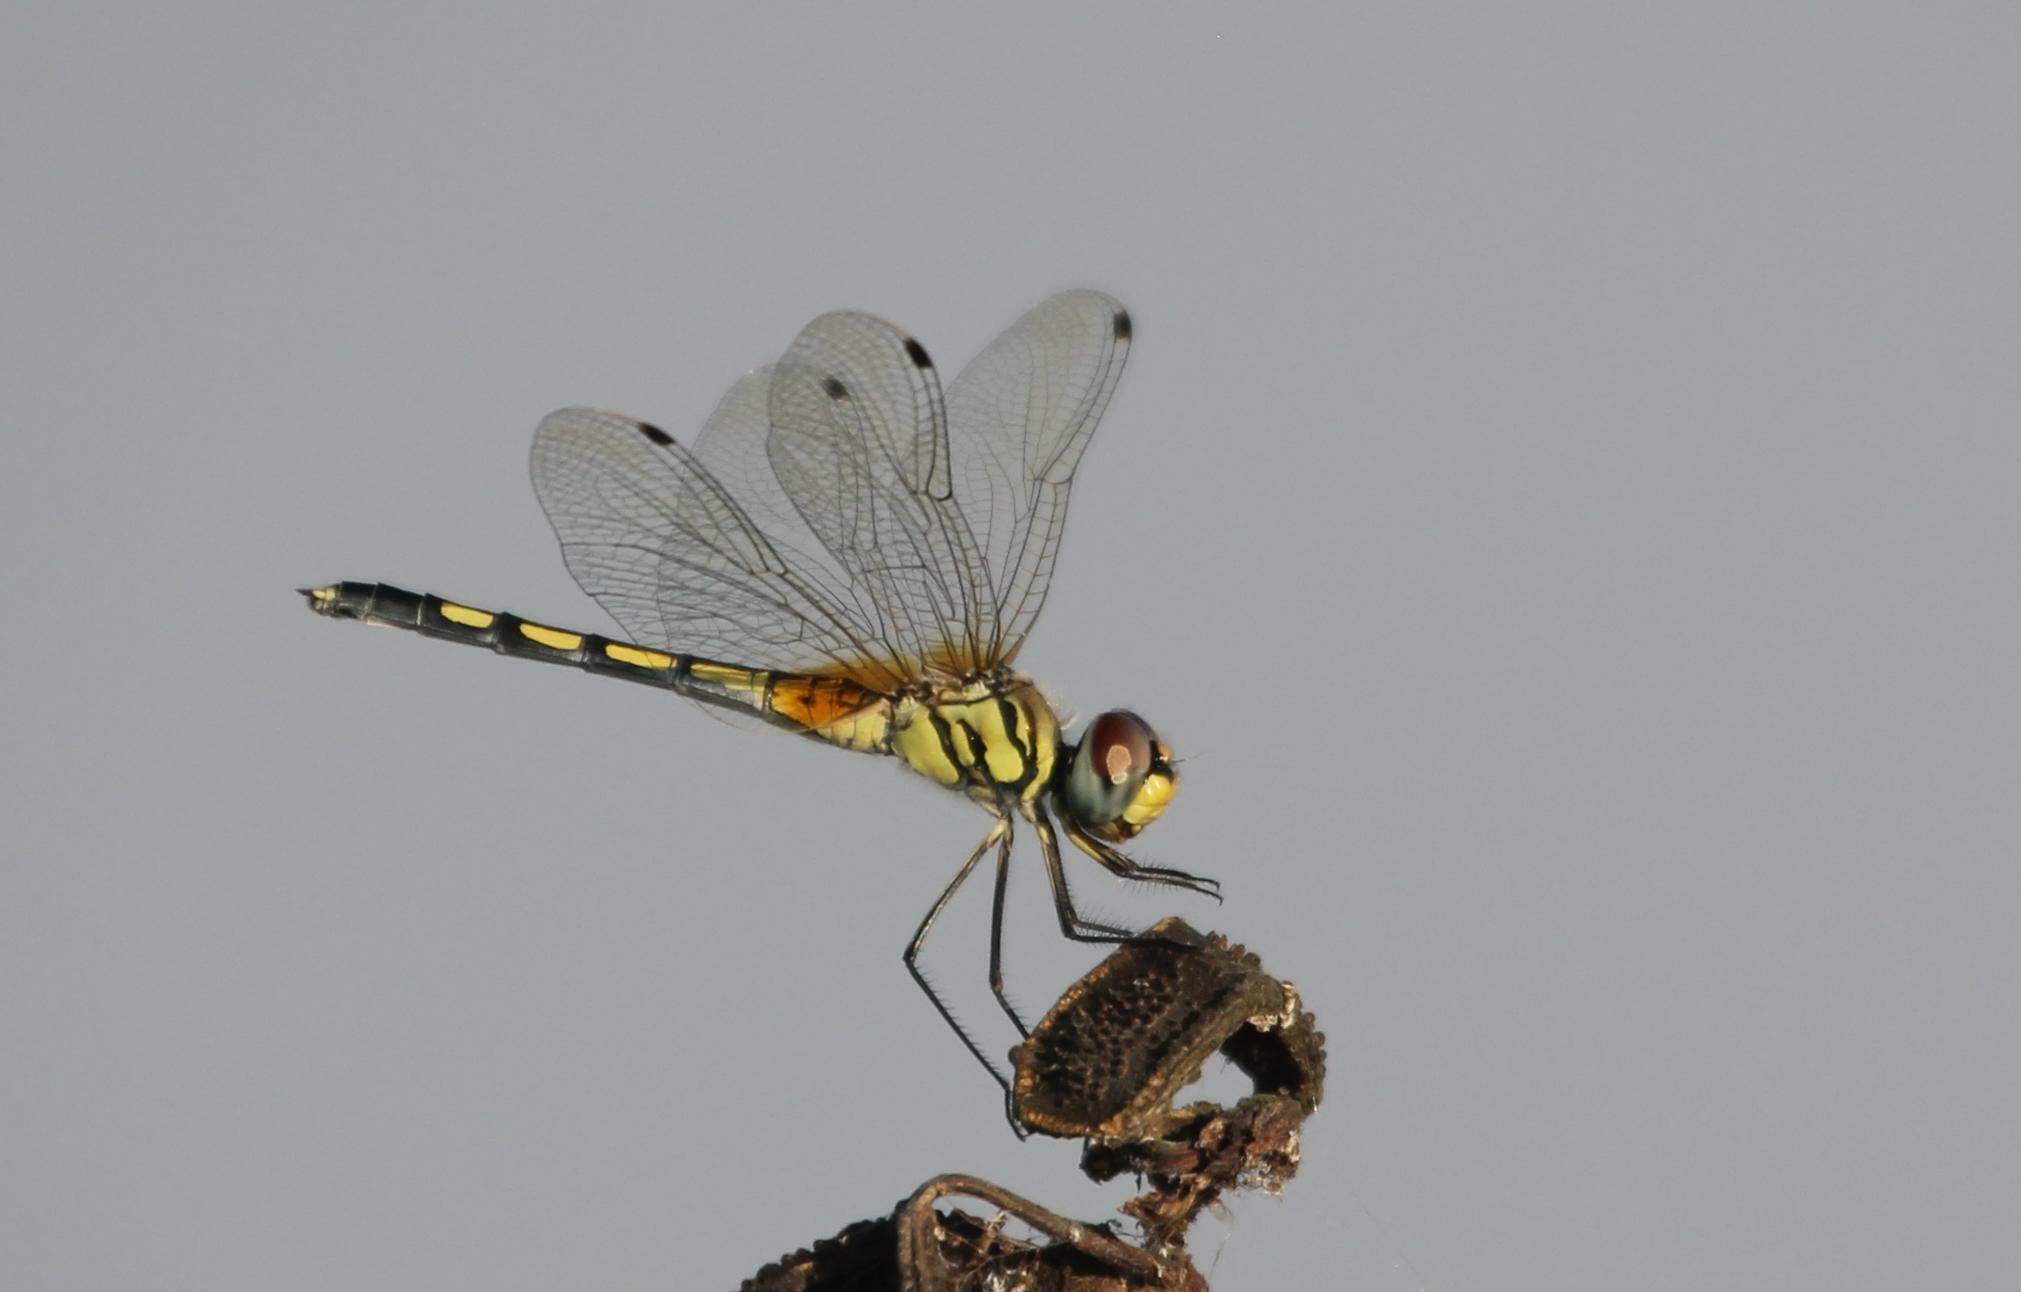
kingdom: Animalia
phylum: Arthropoda
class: Insecta
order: Odonata
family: Libellulidae
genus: Trithemis
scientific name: Trithemis pallidinervis
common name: Dancing dropwing
